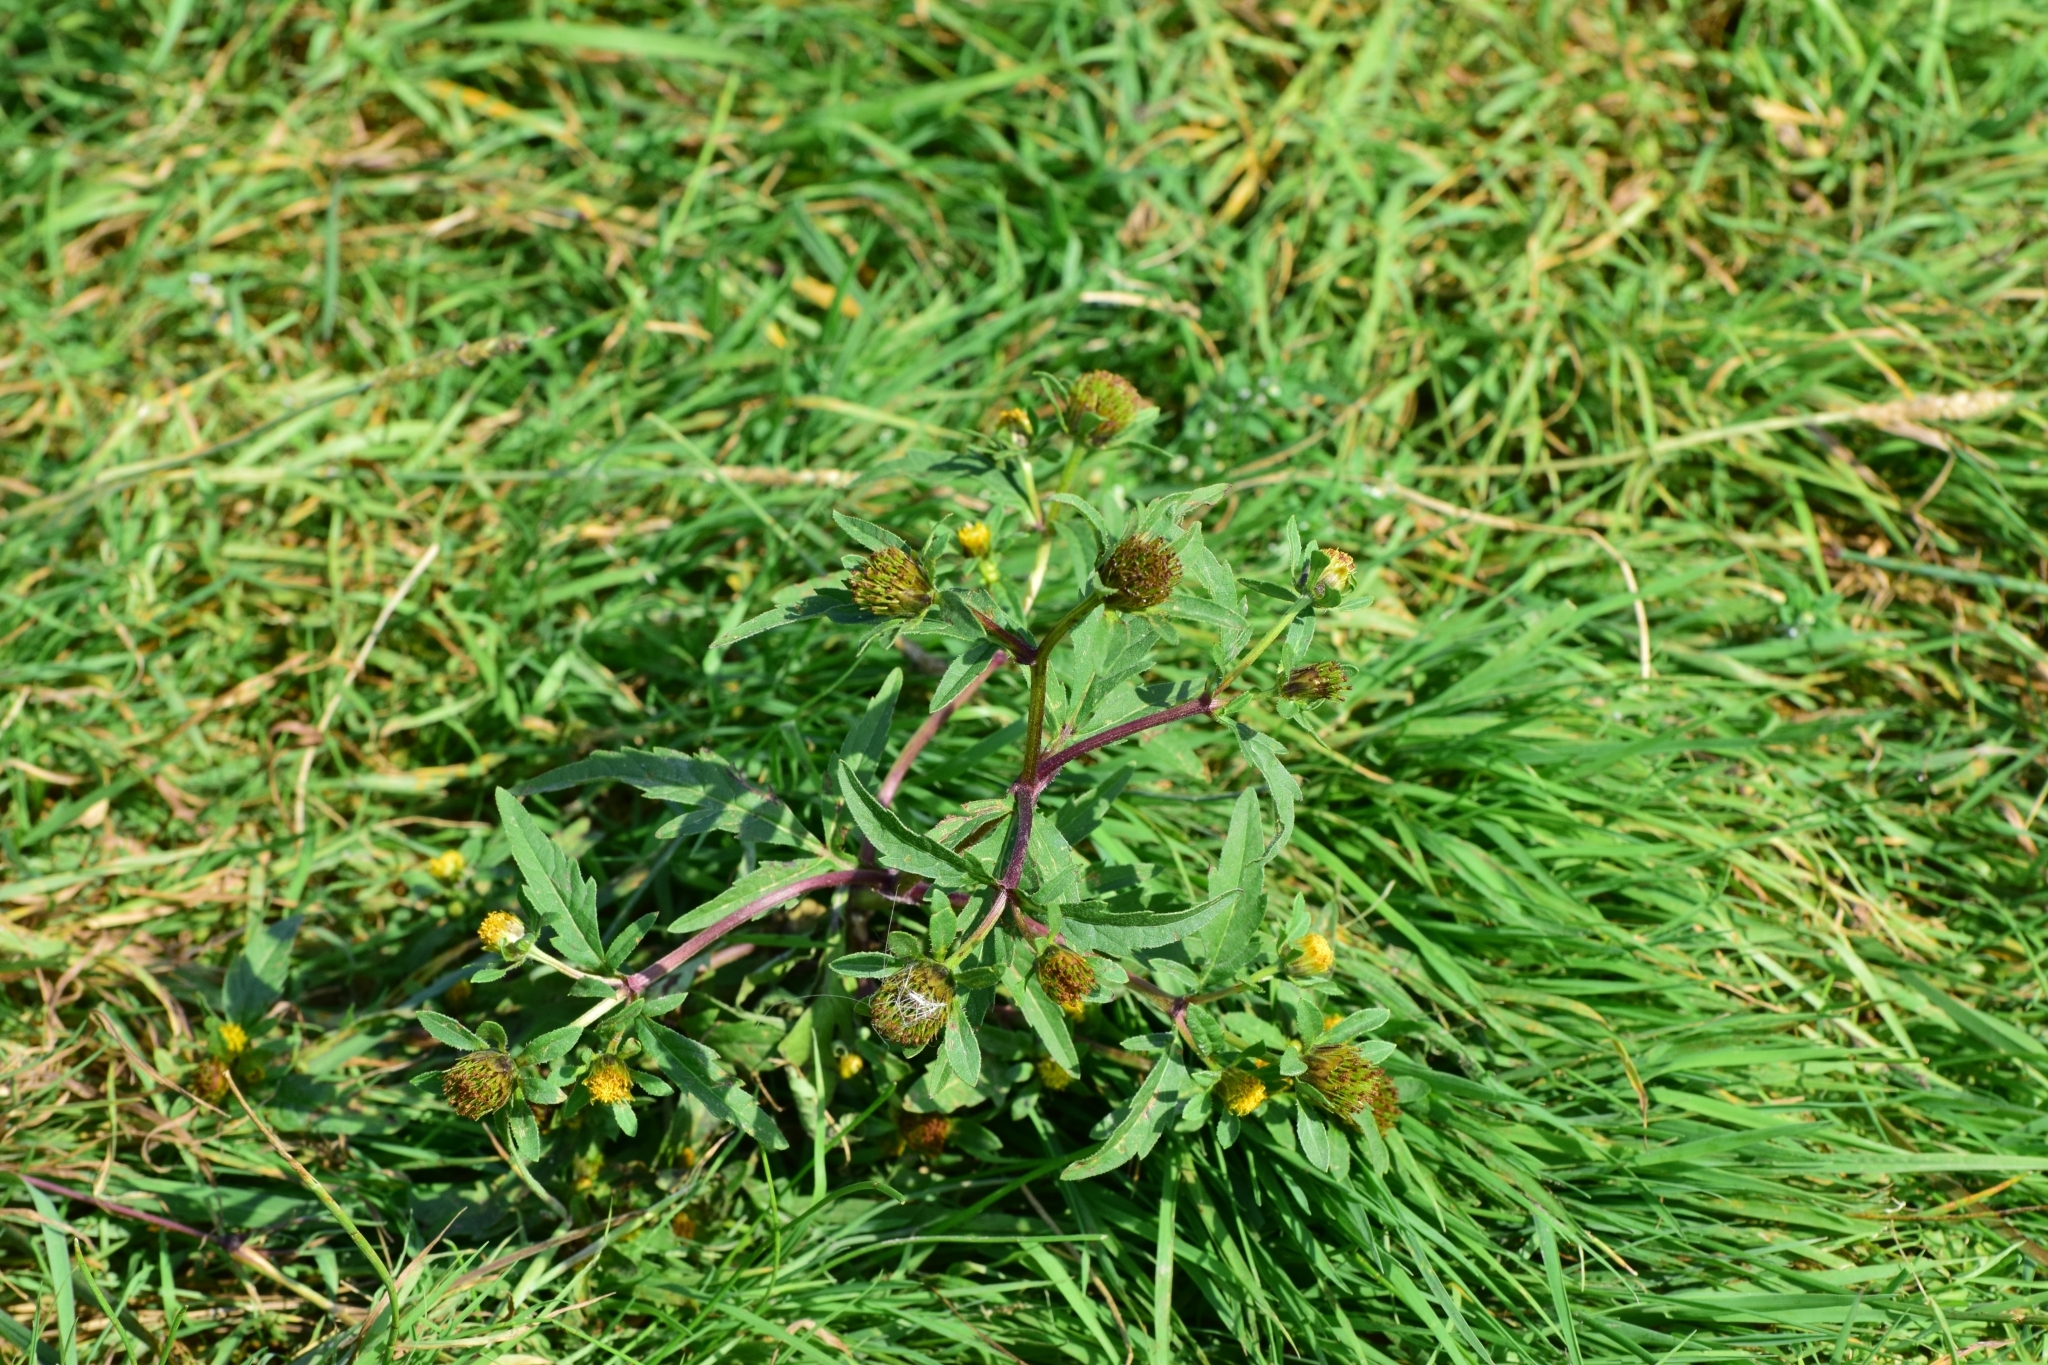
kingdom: Plantae
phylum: Tracheophyta
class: Magnoliopsida
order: Asterales
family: Asteraceae
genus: Bidens
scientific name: Bidens tripartita
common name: Trifid bur-marigold
